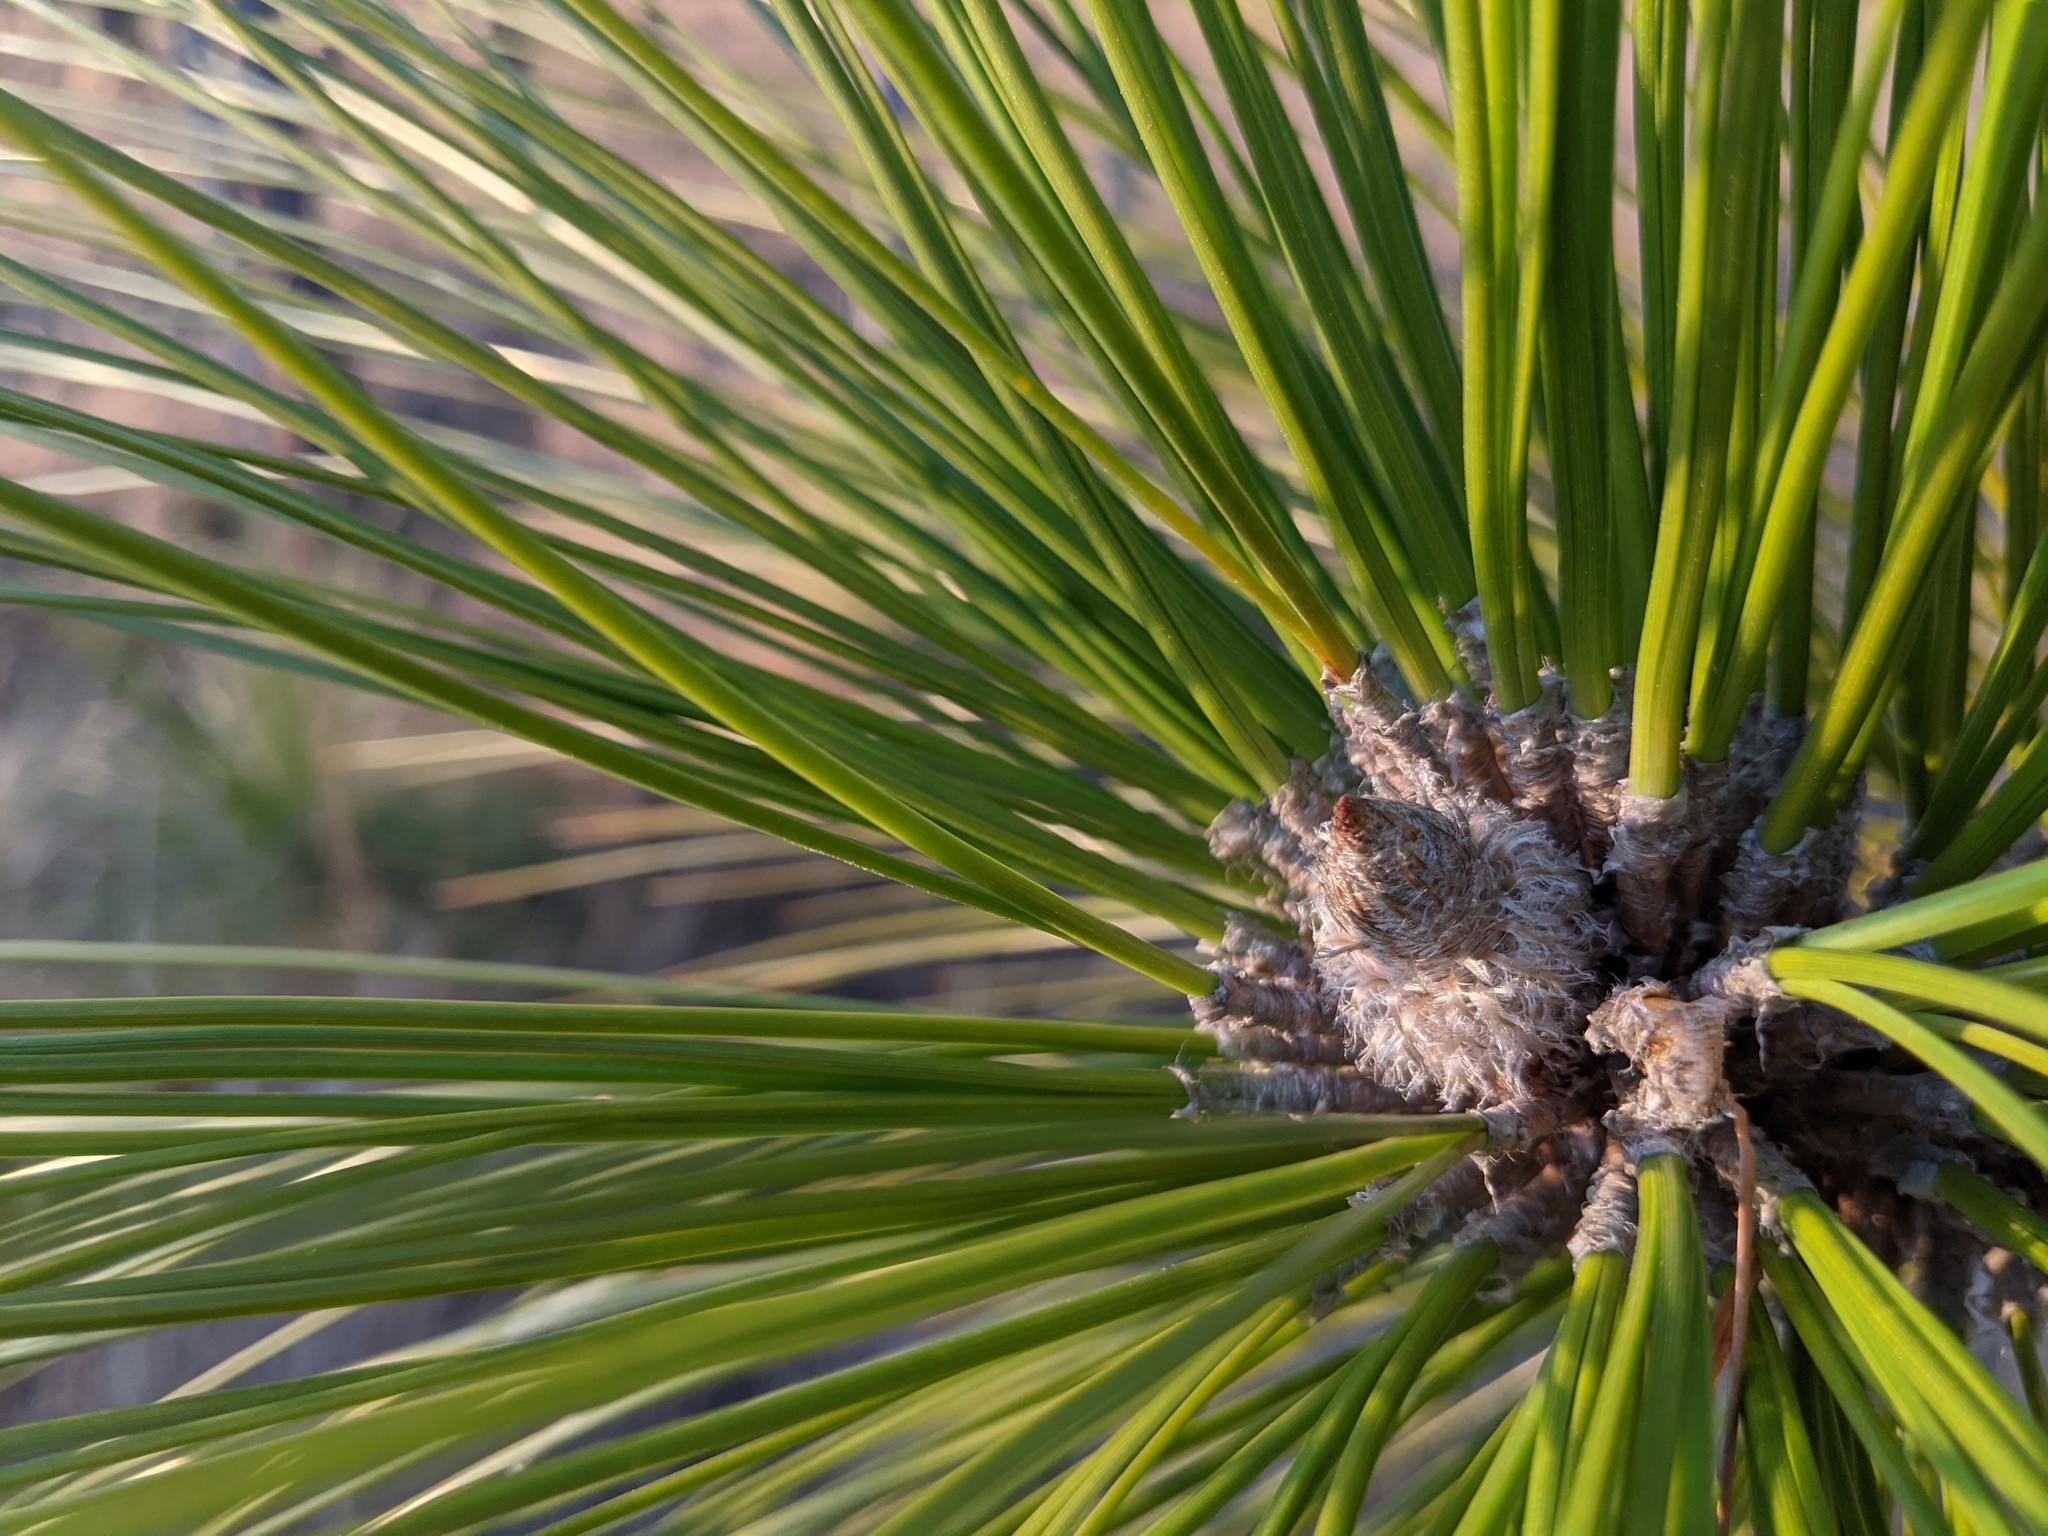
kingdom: Plantae
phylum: Tracheophyta
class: Pinopsida
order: Pinales
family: Pinaceae
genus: Pinus
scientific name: Pinus palustris
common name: Longleaf pine
